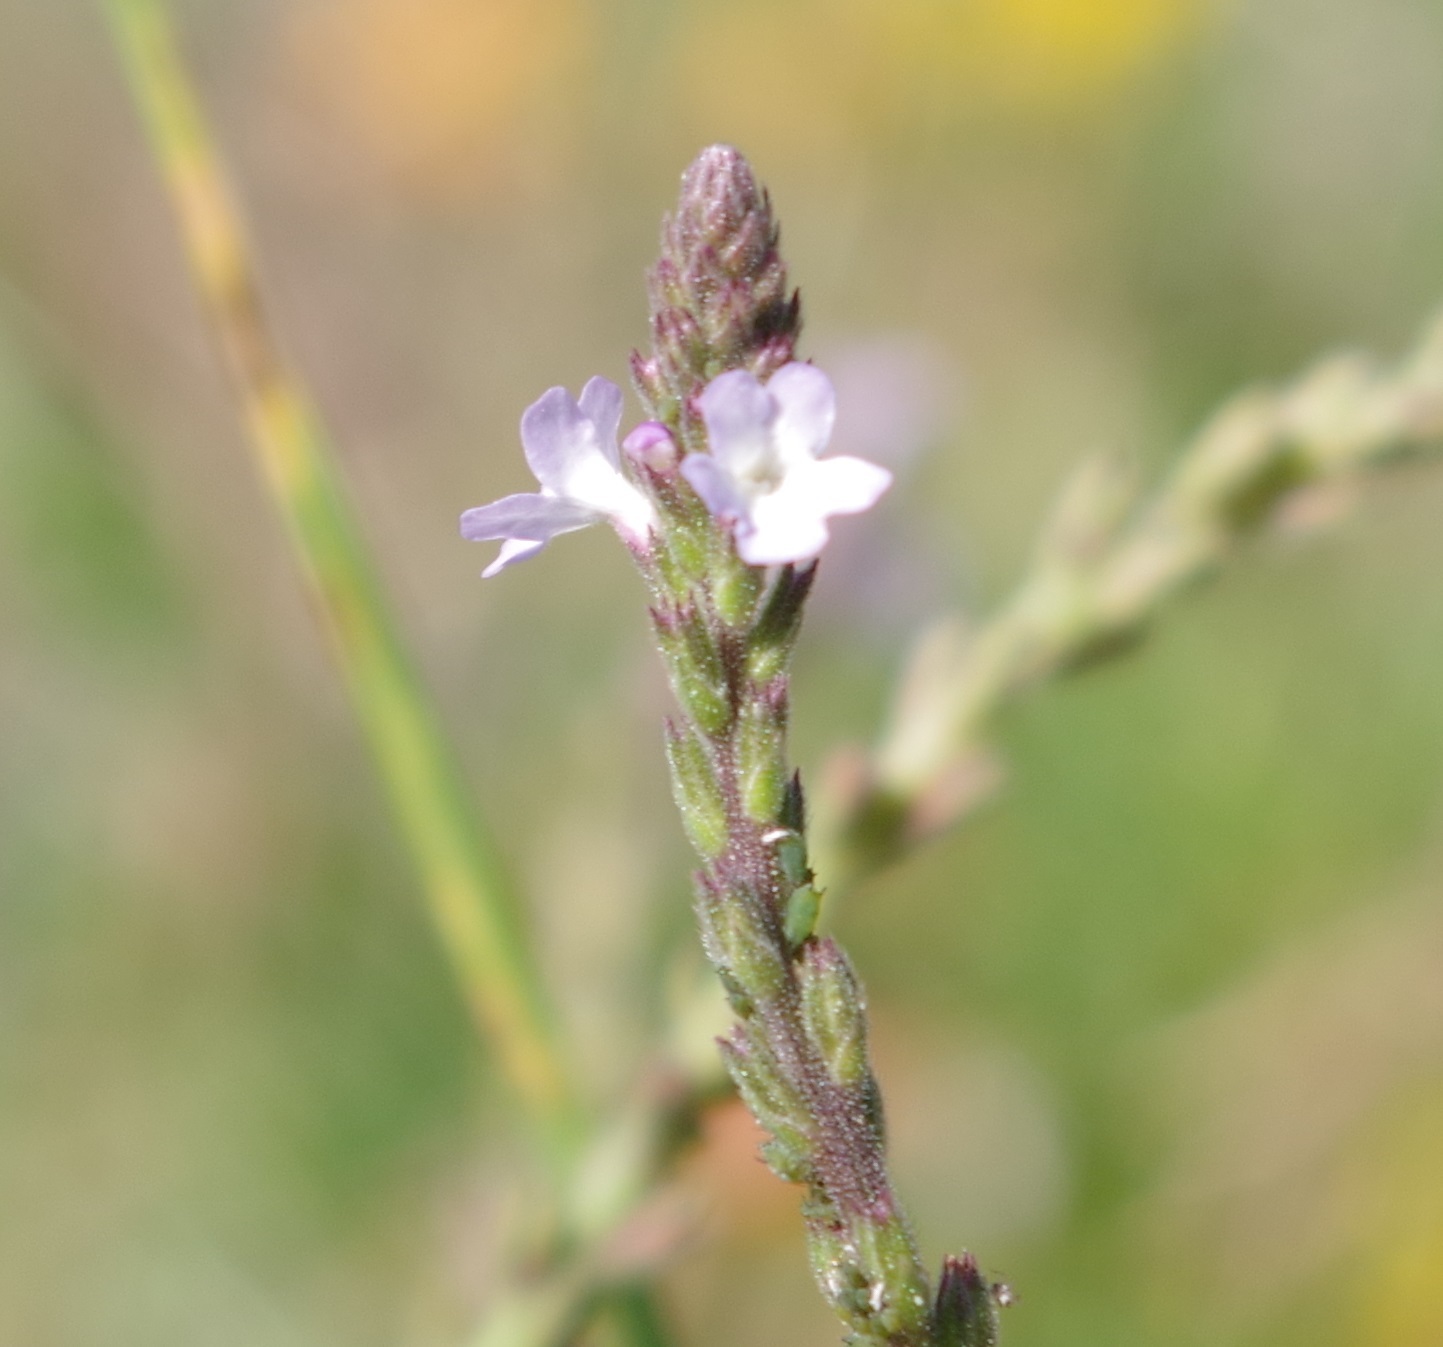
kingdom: Plantae
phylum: Tracheophyta
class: Magnoliopsida
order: Lamiales
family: Verbenaceae
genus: Verbena
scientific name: Verbena officinalis
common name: Vervain
